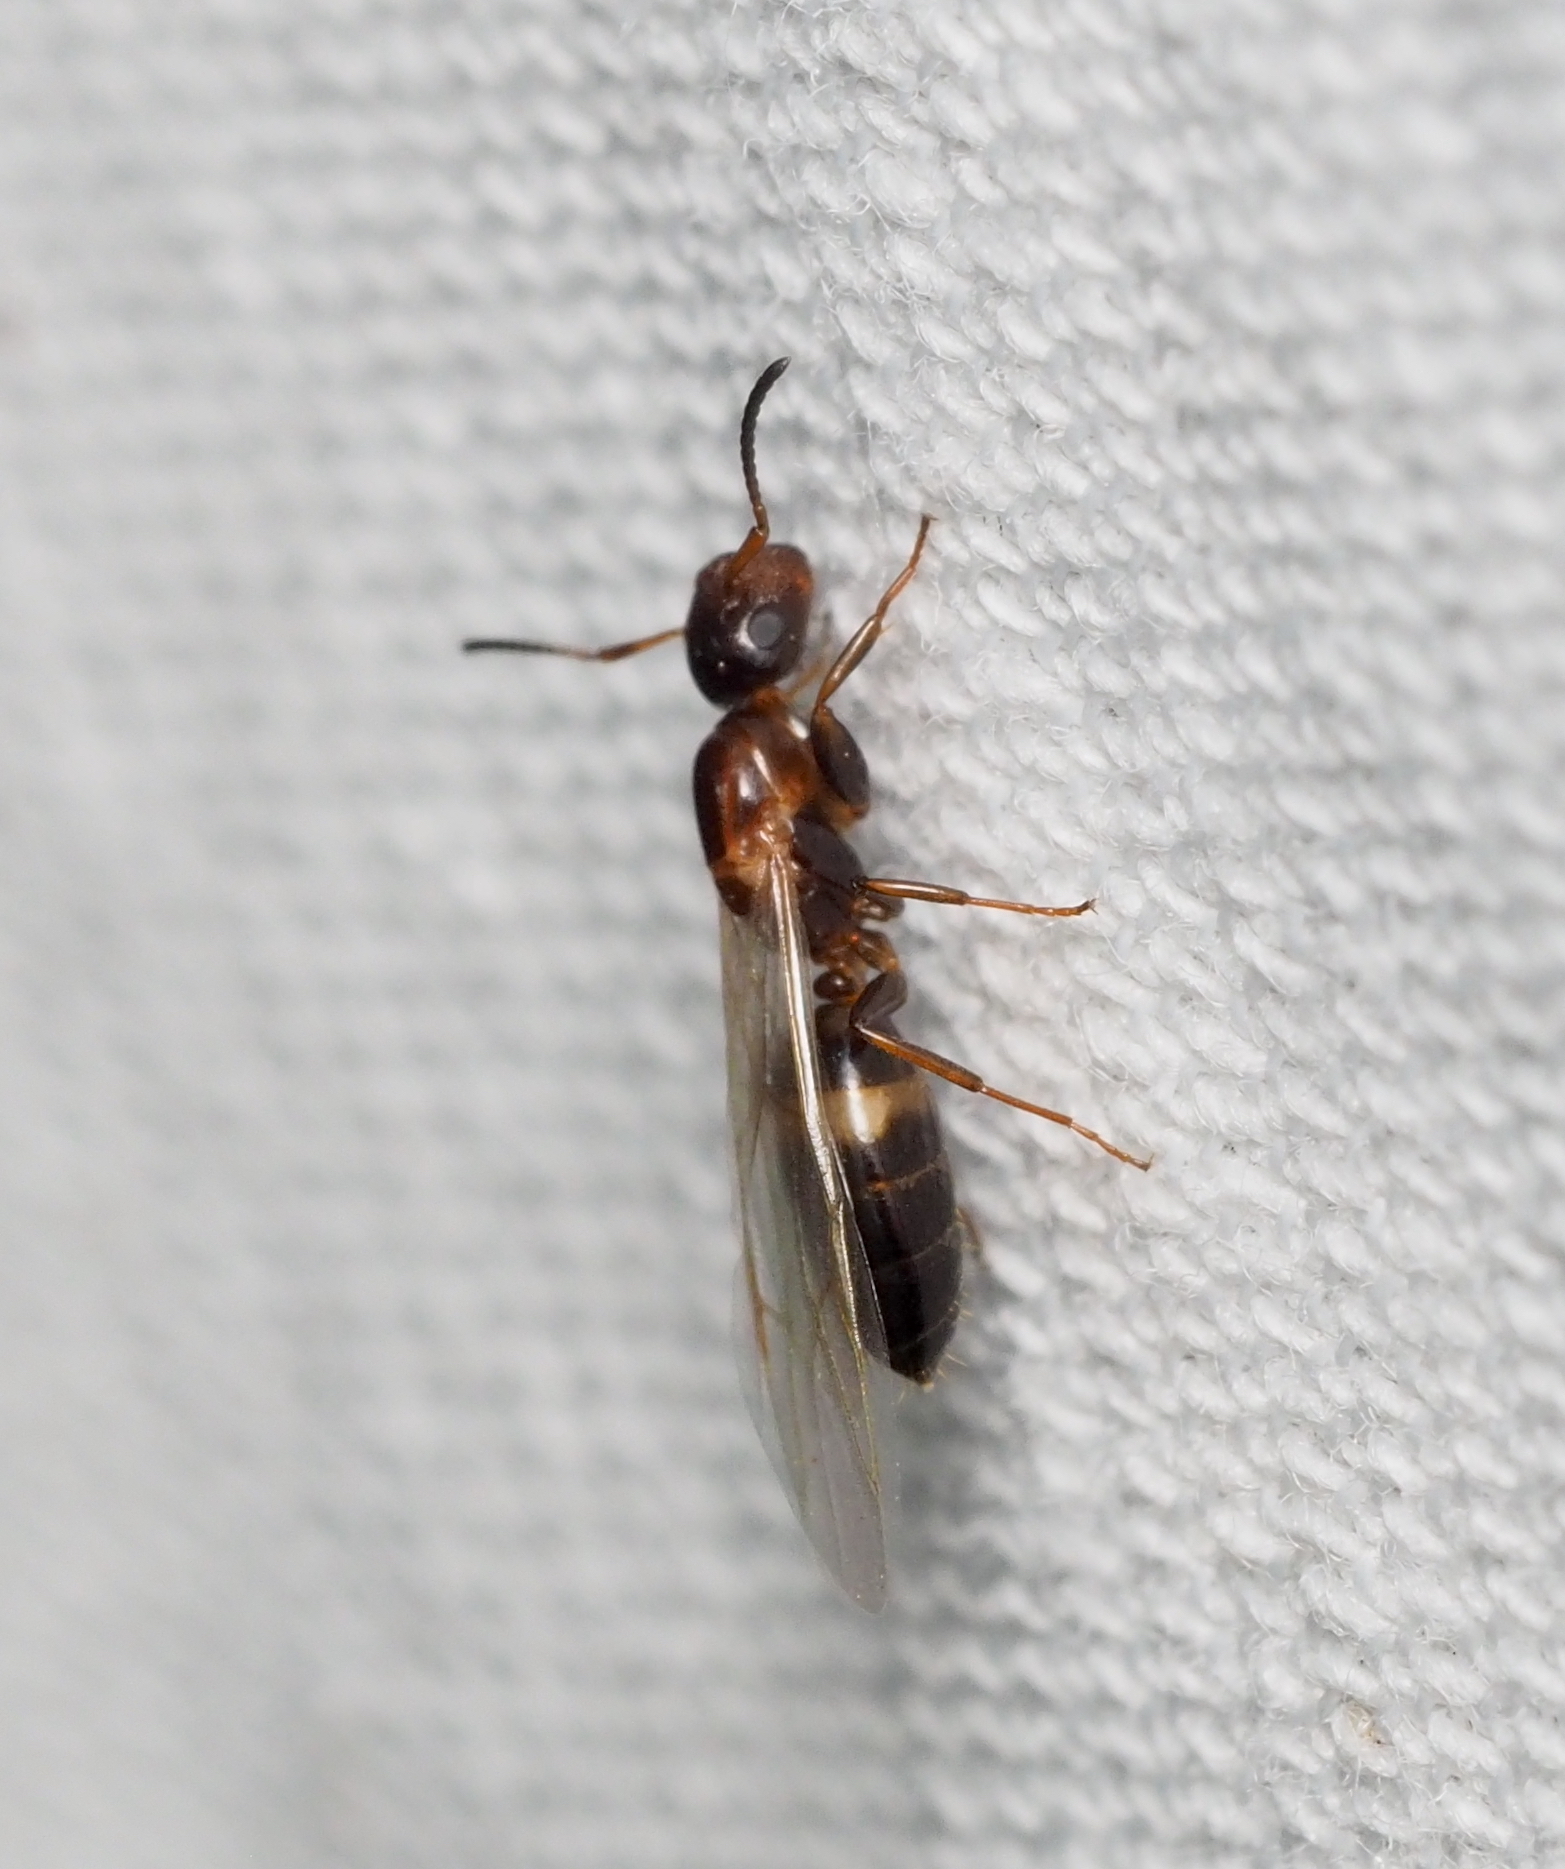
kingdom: Animalia
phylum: Arthropoda
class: Insecta
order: Hymenoptera
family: Formicidae
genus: Camponotus
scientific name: Camponotus truncatus
